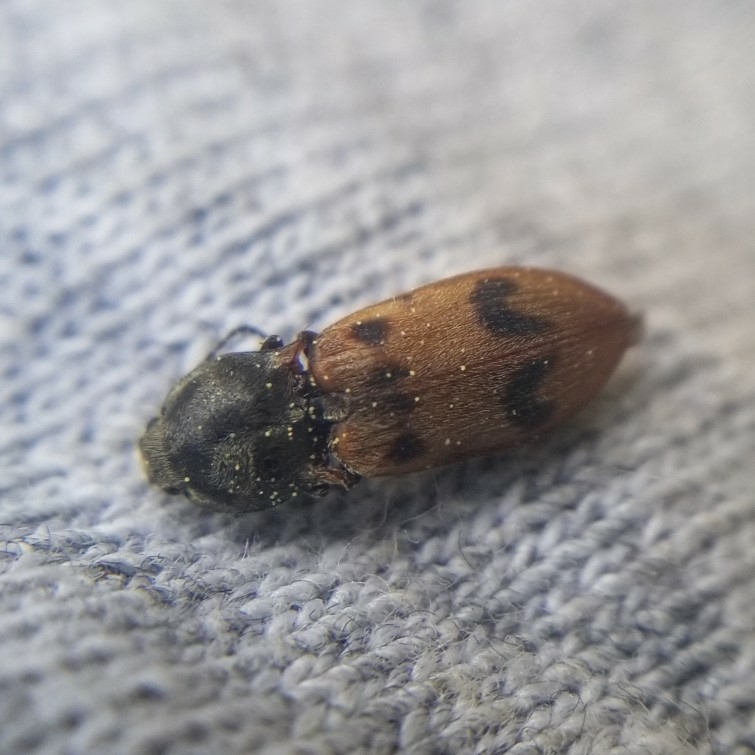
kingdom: Animalia
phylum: Arthropoda
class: Insecta
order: Coleoptera
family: Elateridae
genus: Stropenron
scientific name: Stropenron
